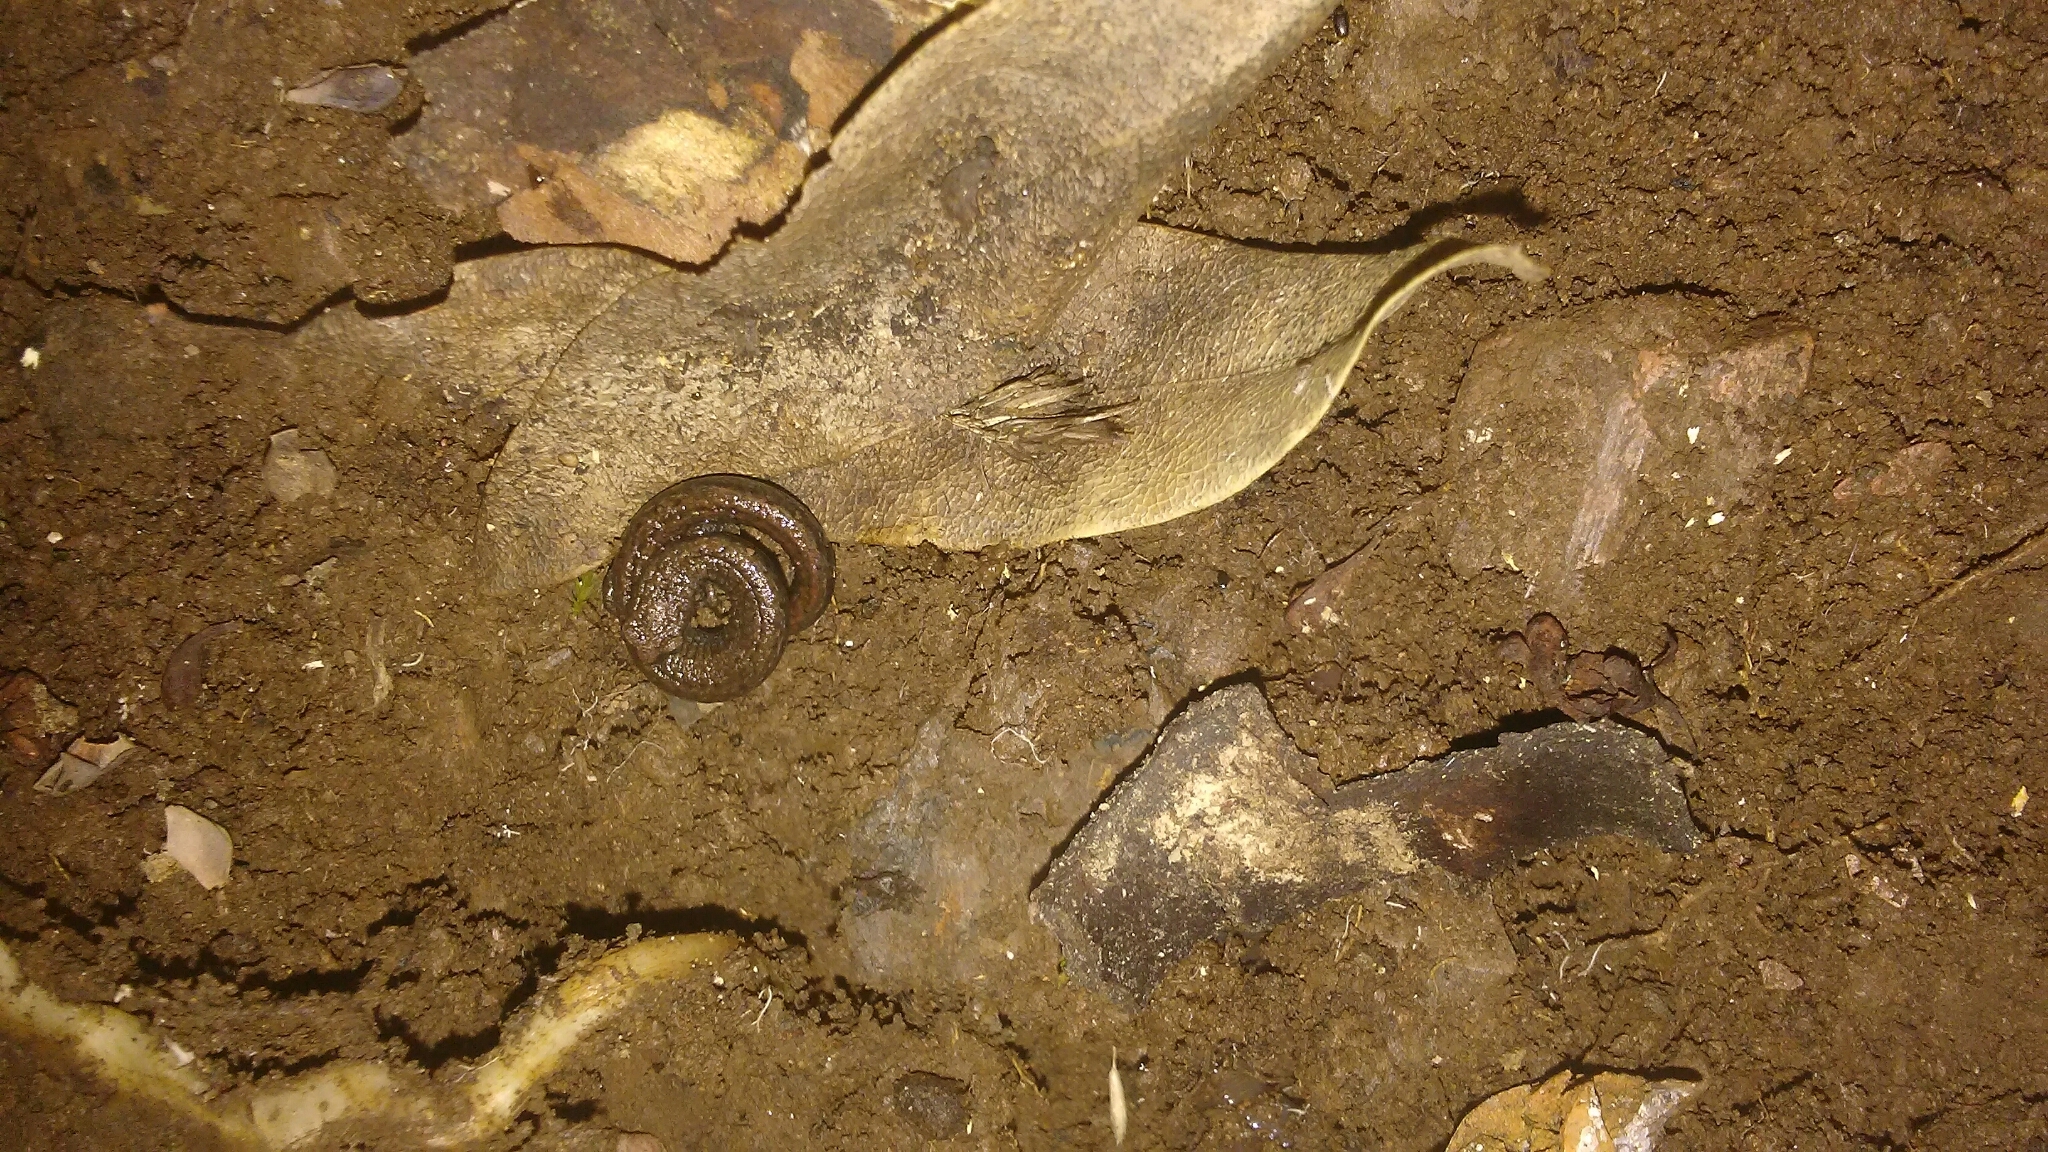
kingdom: Animalia
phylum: Chordata
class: Amphibia
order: Caudata
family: Plethodontidae
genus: Batrachoseps
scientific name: Batrachoseps attenuatus
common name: California slender salamander
